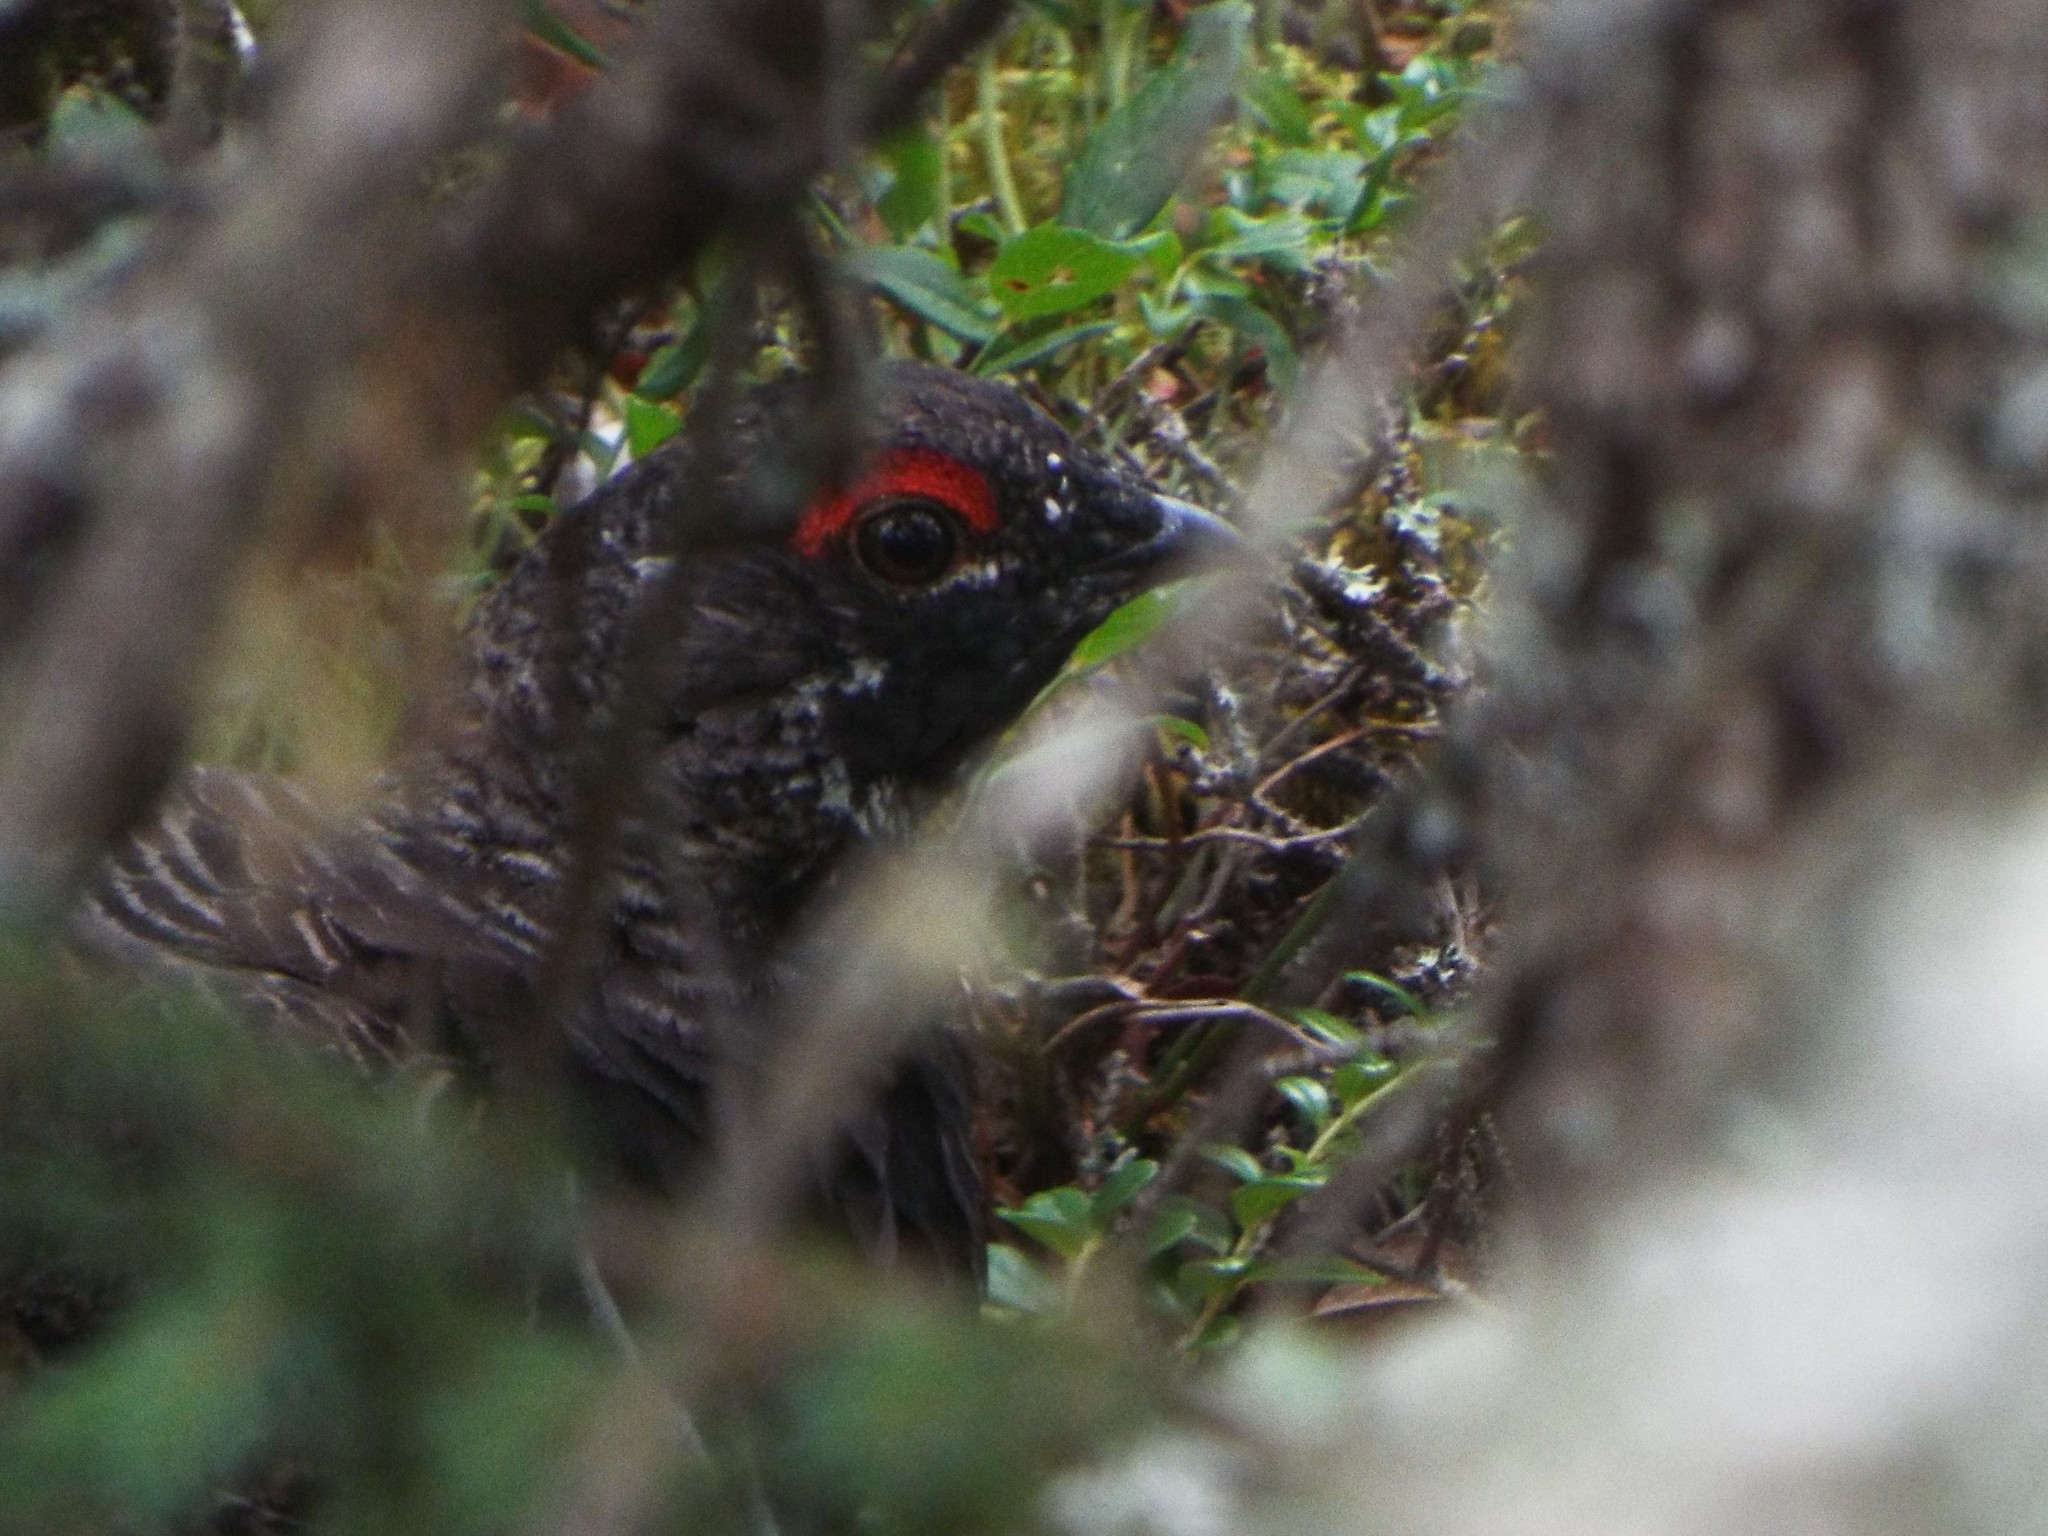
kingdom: Animalia
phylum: Chordata
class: Aves
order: Galliformes
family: Phasianidae
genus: Canachites
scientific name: Canachites canadensis
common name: Spruce grouse
